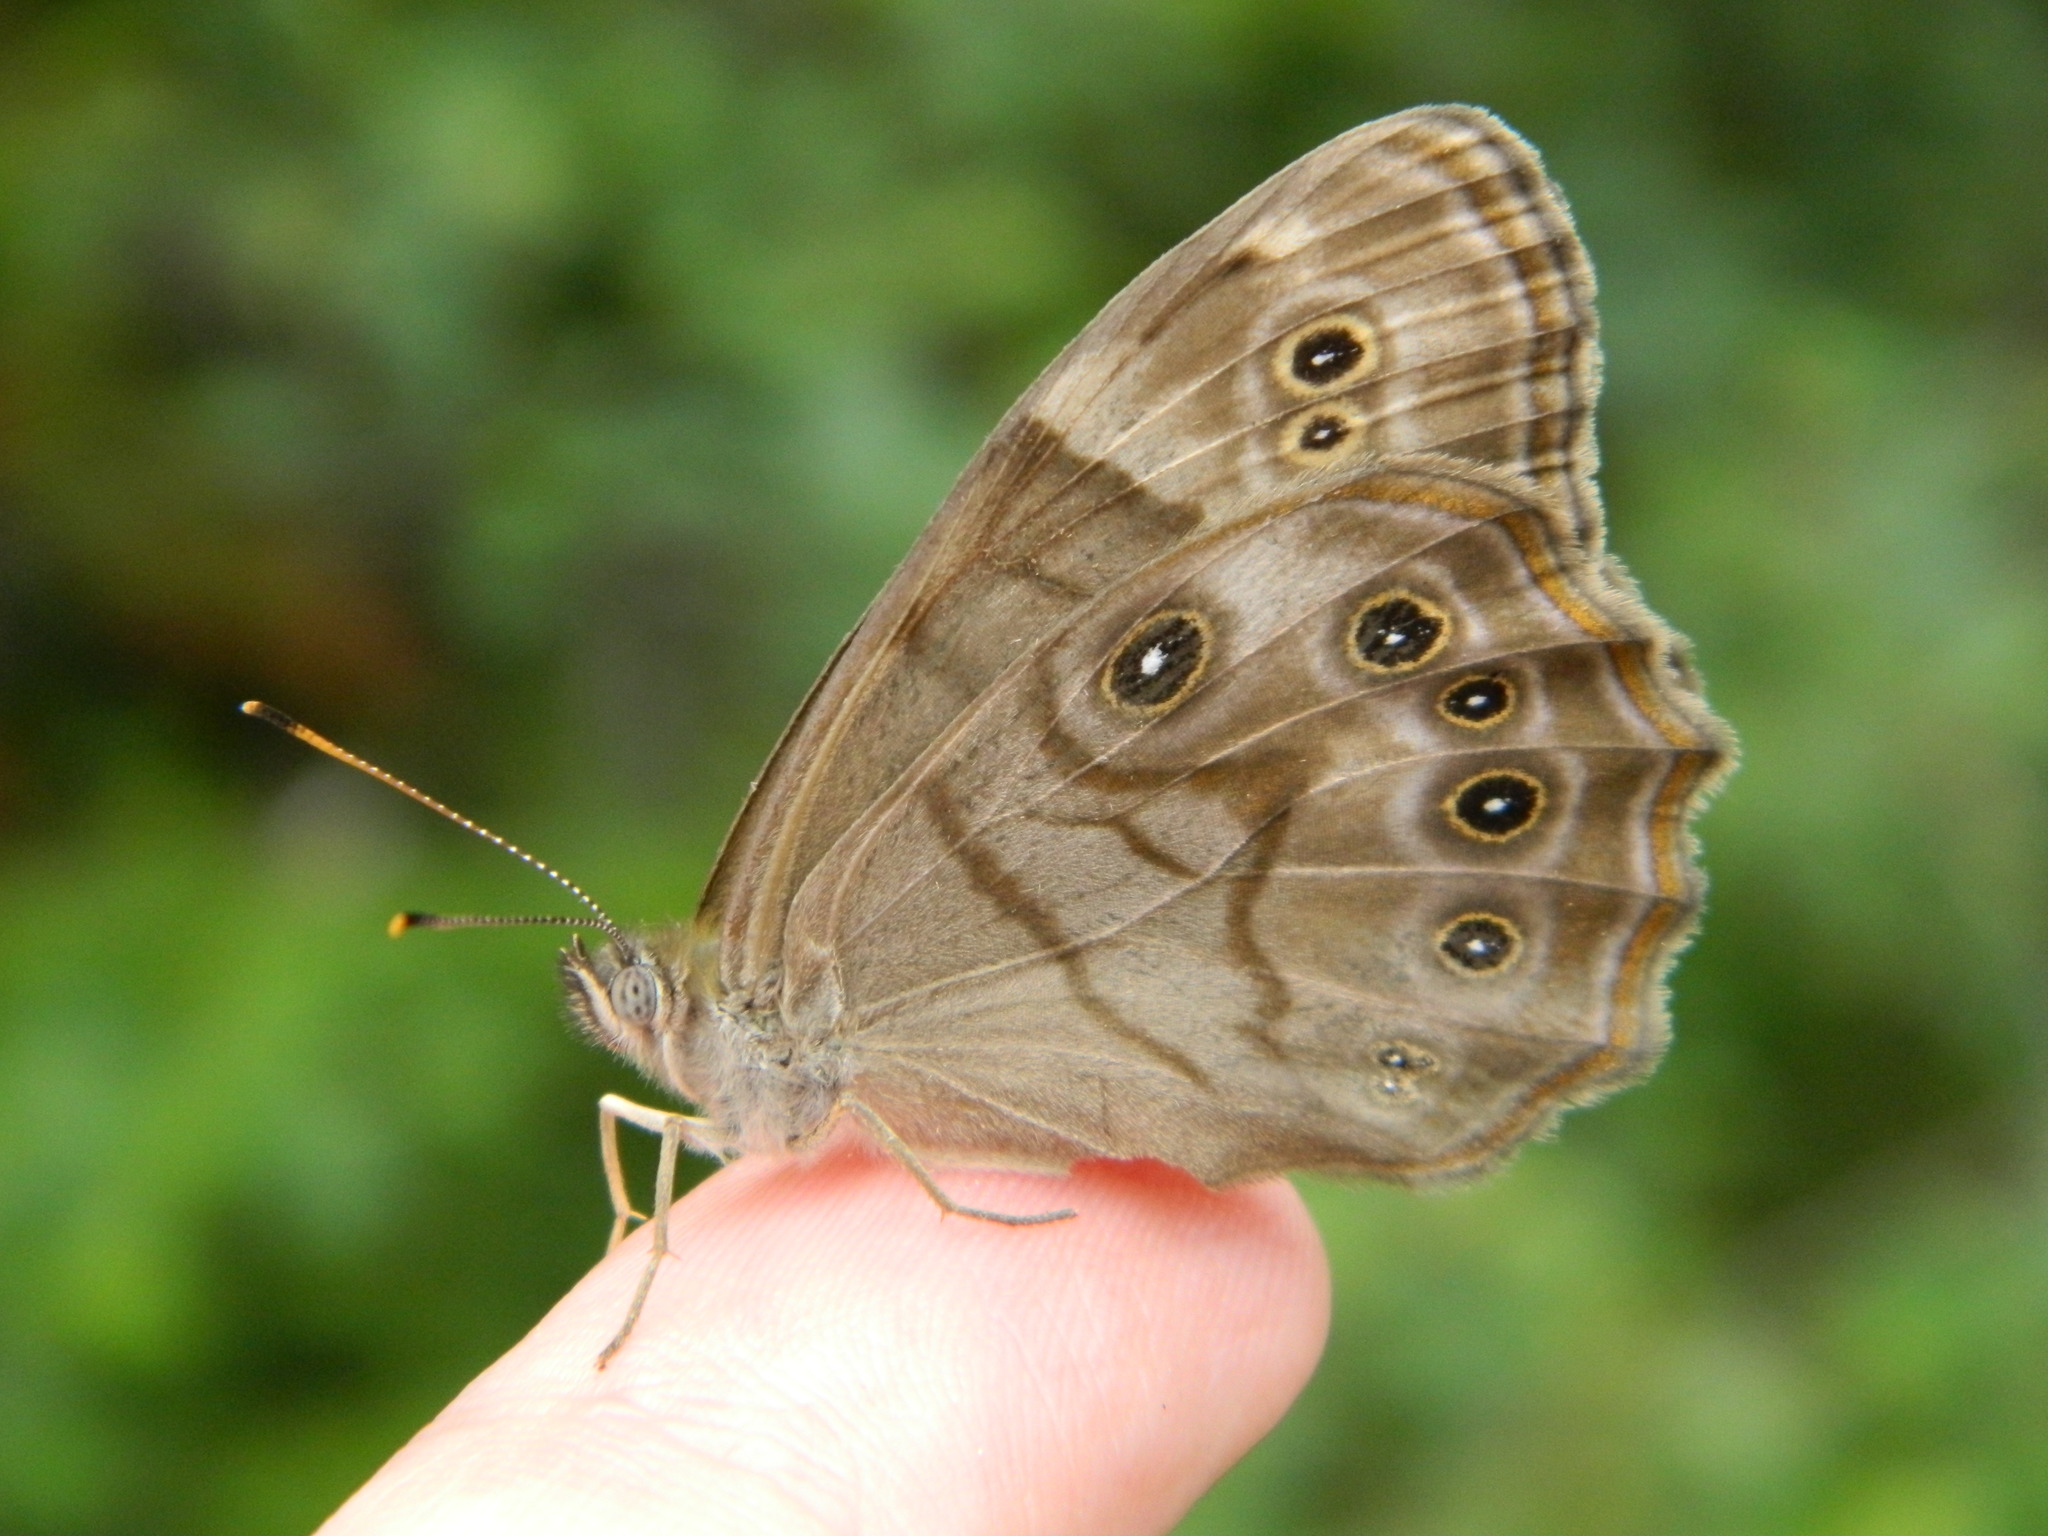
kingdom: Animalia
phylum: Arthropoda
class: Insecta
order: Lepidoptera
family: Nymphalidae
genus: Lethe
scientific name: Lethe anthedon
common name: Northern pearly-eye
